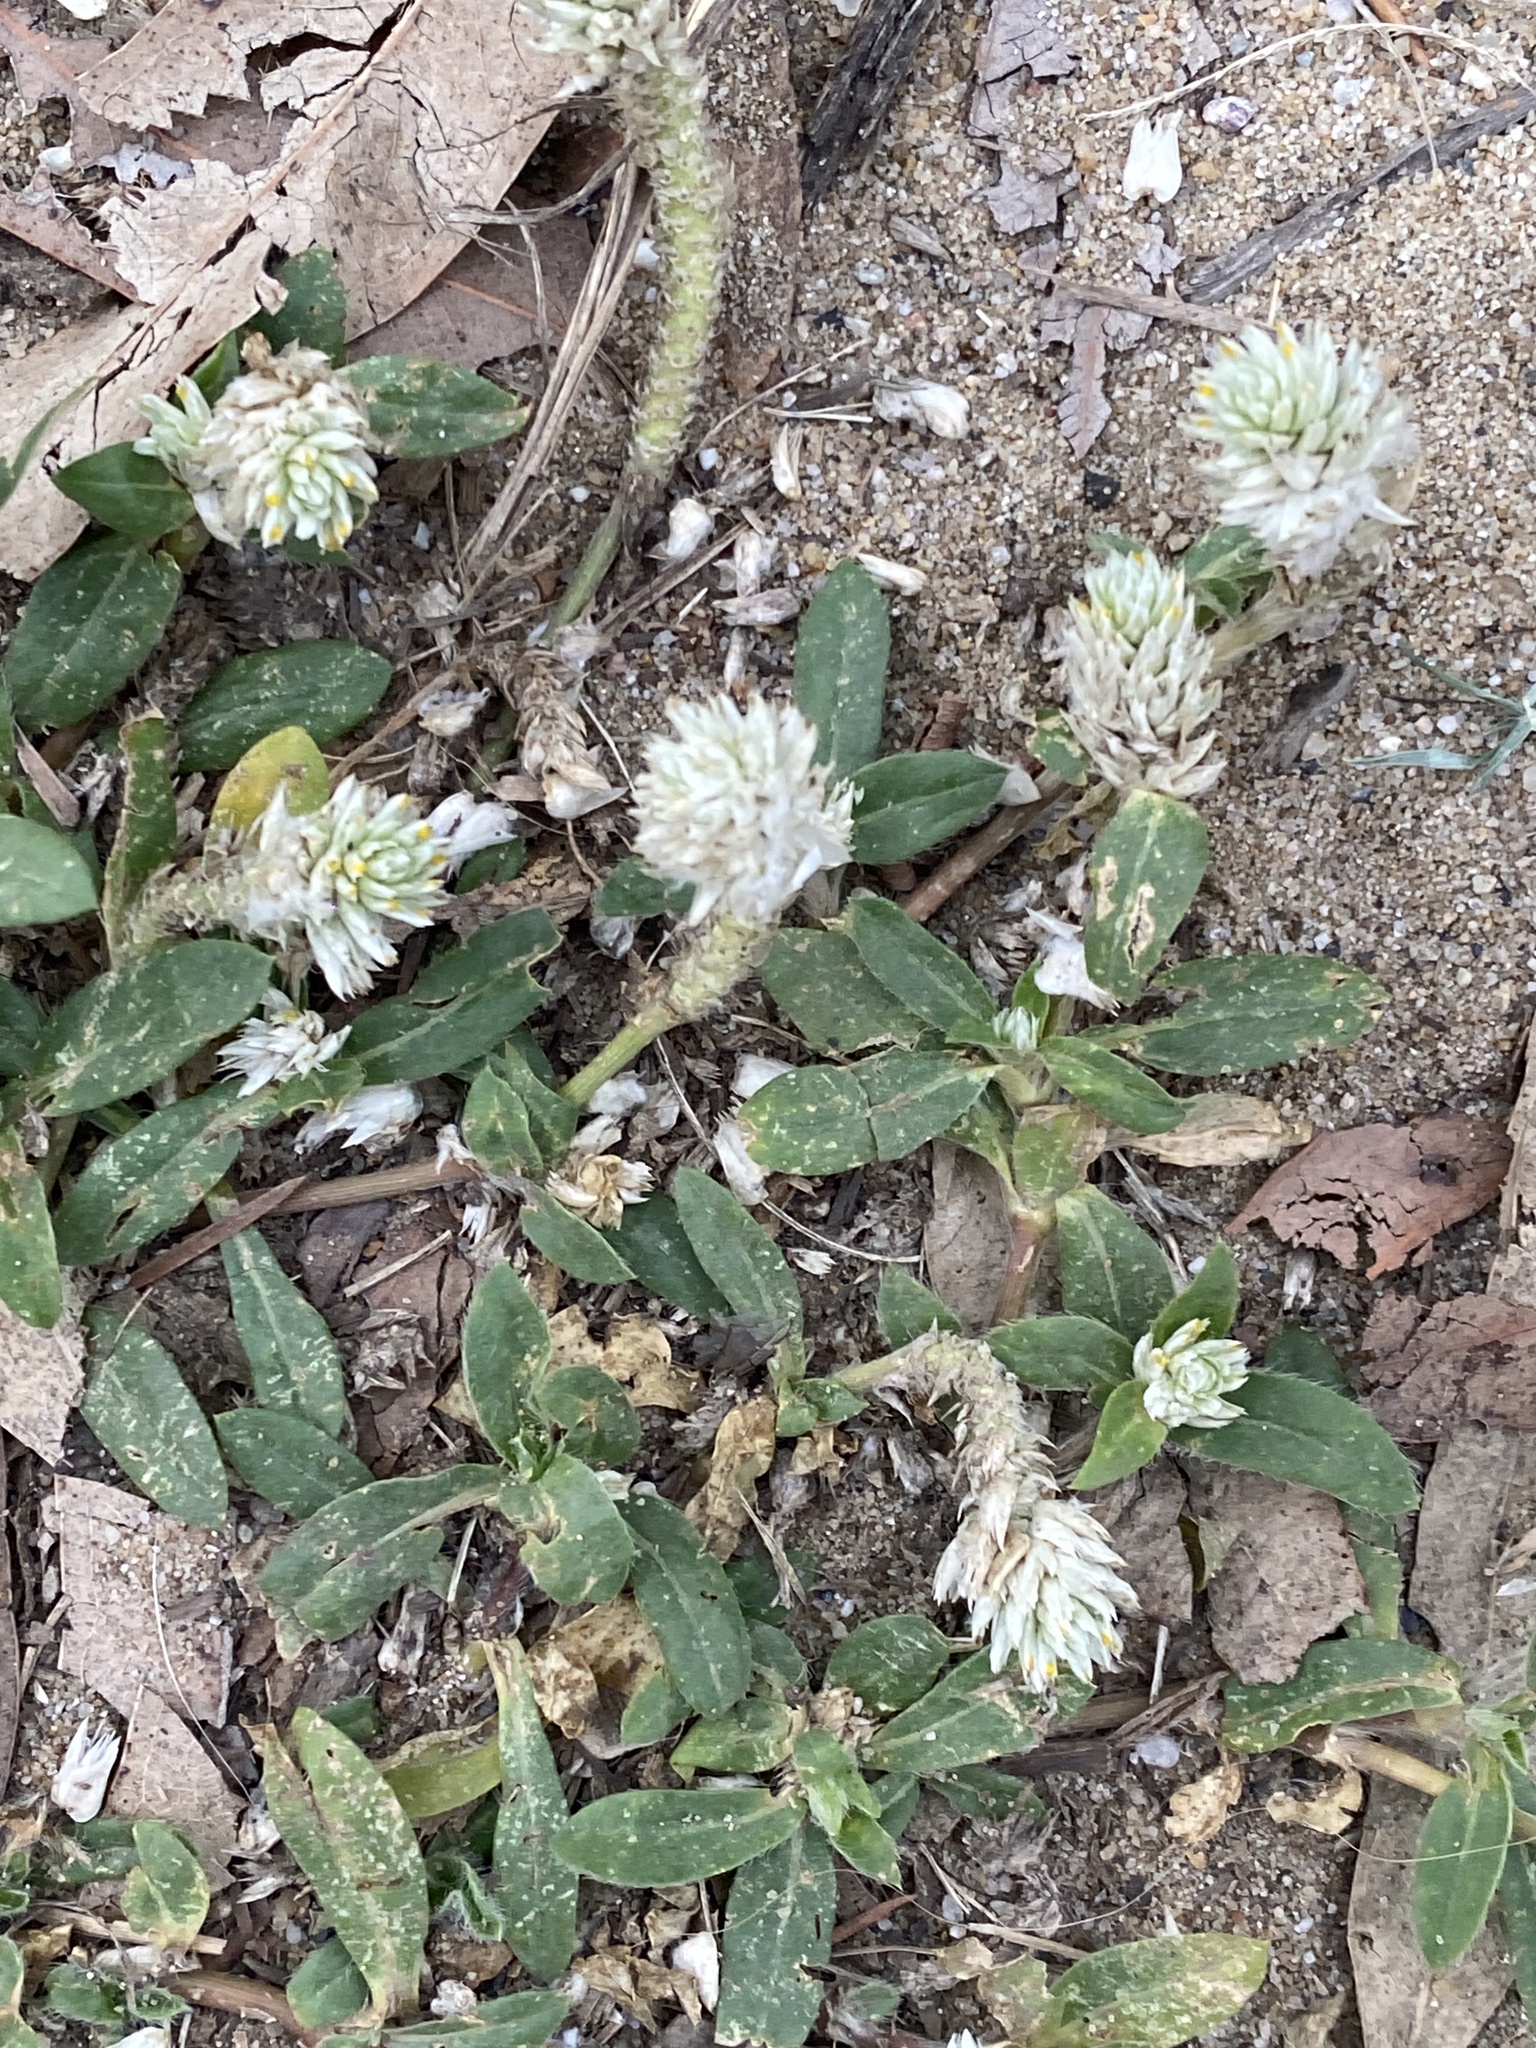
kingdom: Plantae
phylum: Tracheophyta
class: Magnoliopsida
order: Caryophyllales
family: Amaranthaceae
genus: Gomphrena
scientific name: Gomphrena celosioides
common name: Gomphrena-weed
